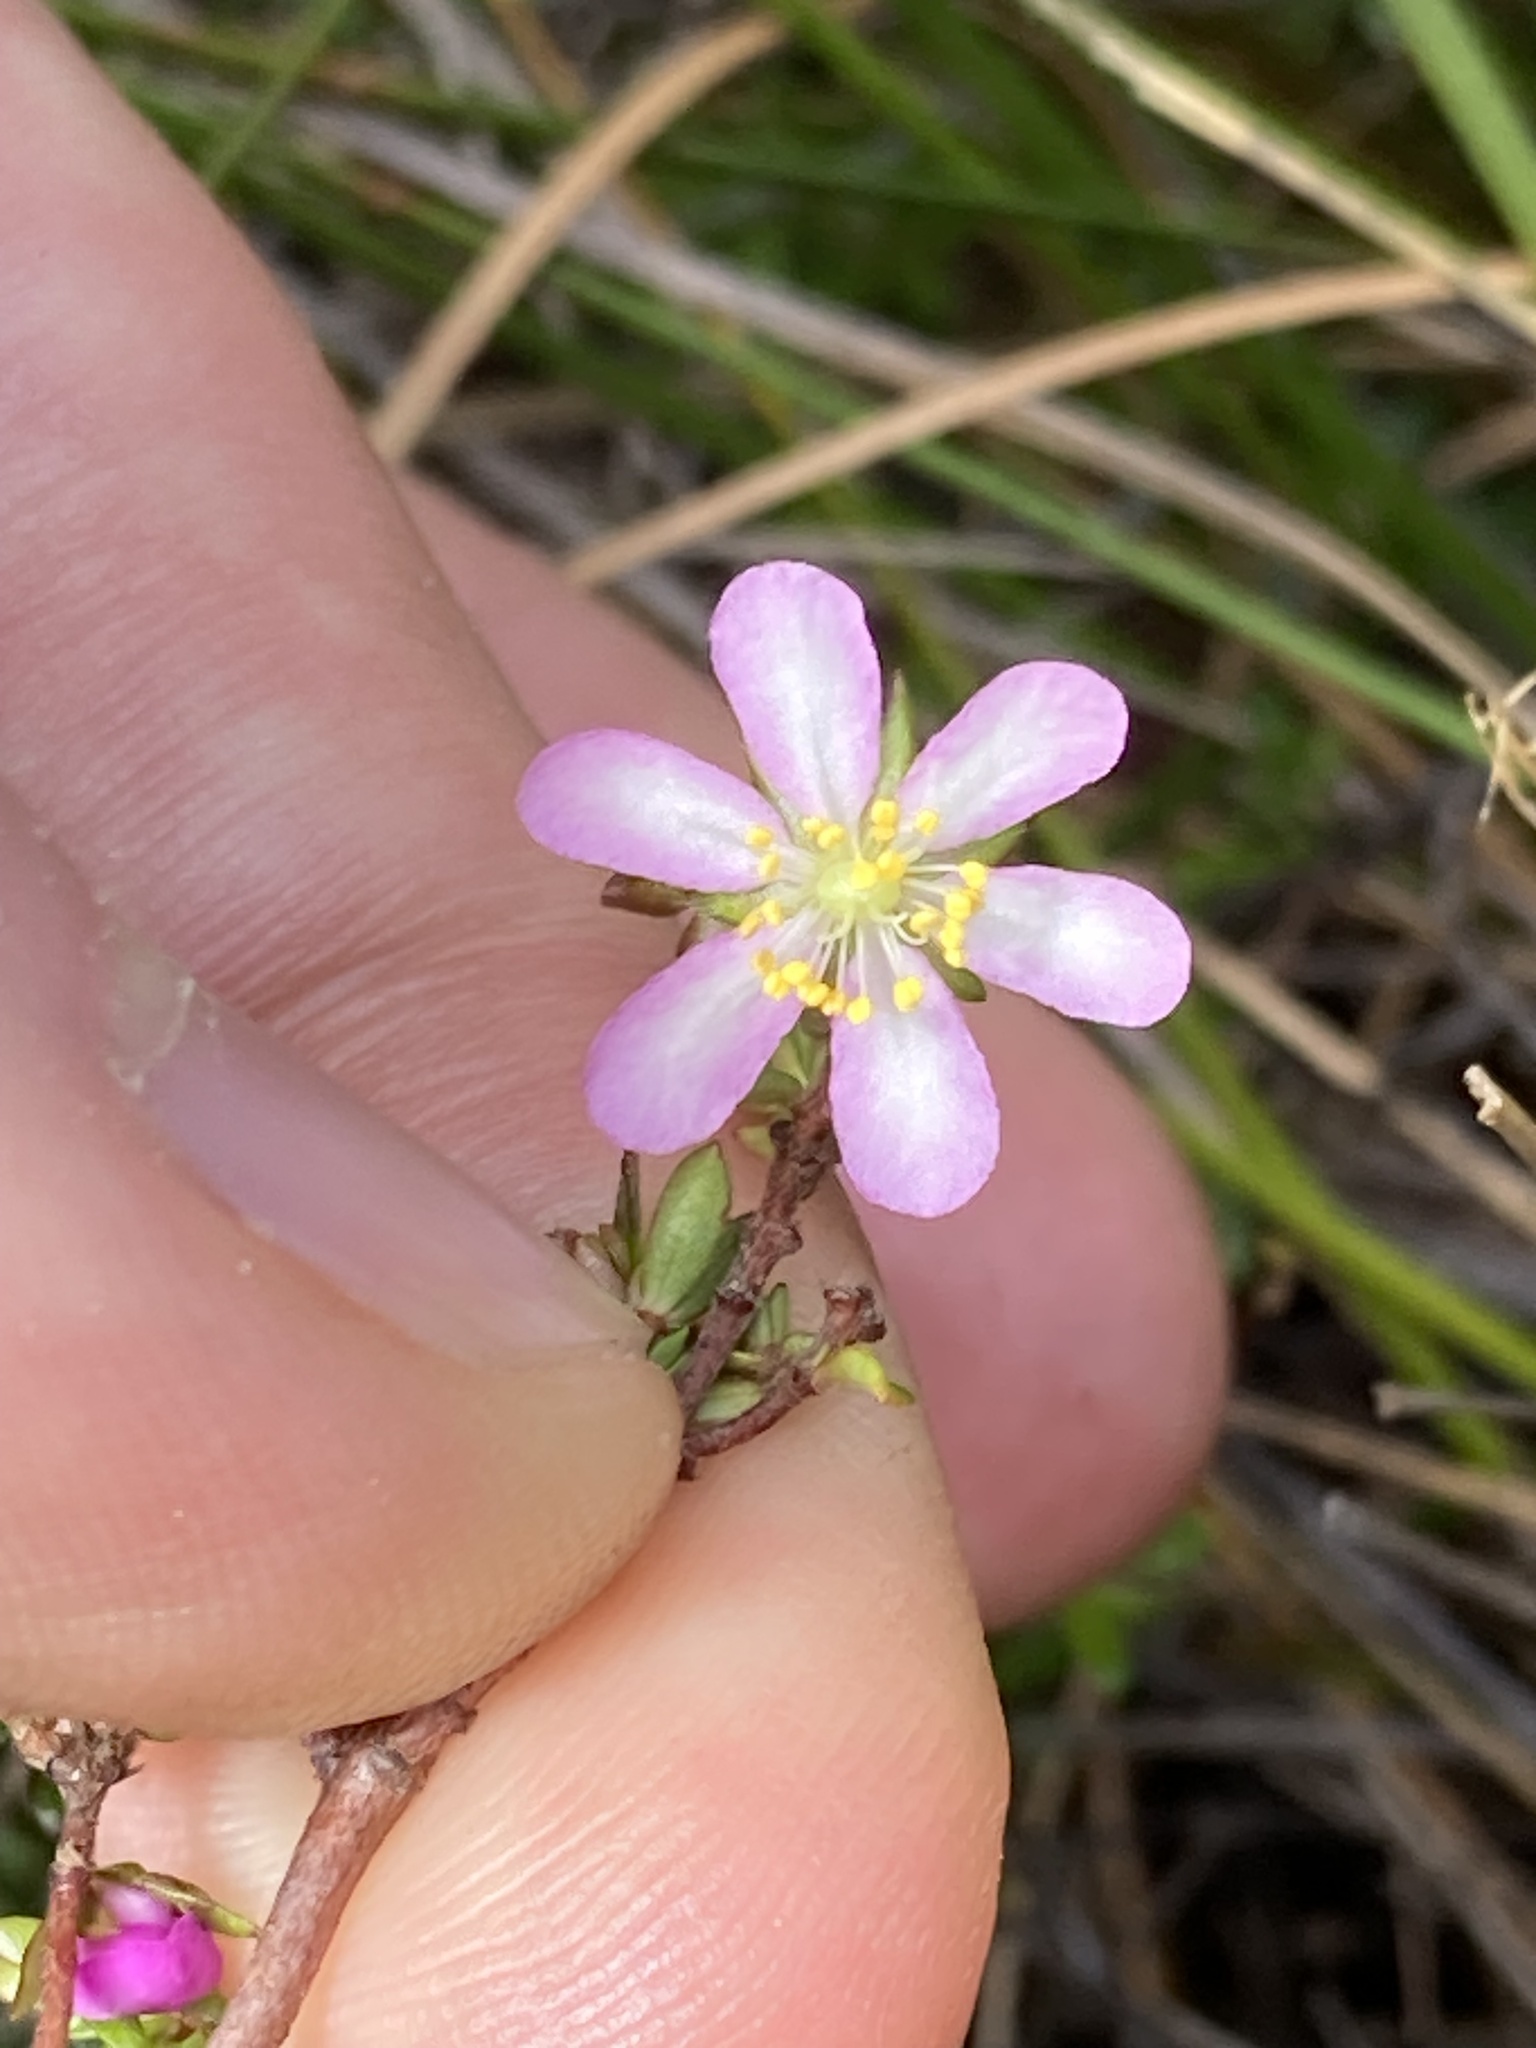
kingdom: Plantae
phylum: Tracheophyta
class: Magnoliopsida
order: Oxalidales
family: Cunoniaceae
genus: Bauera
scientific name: Bauera microphylla
